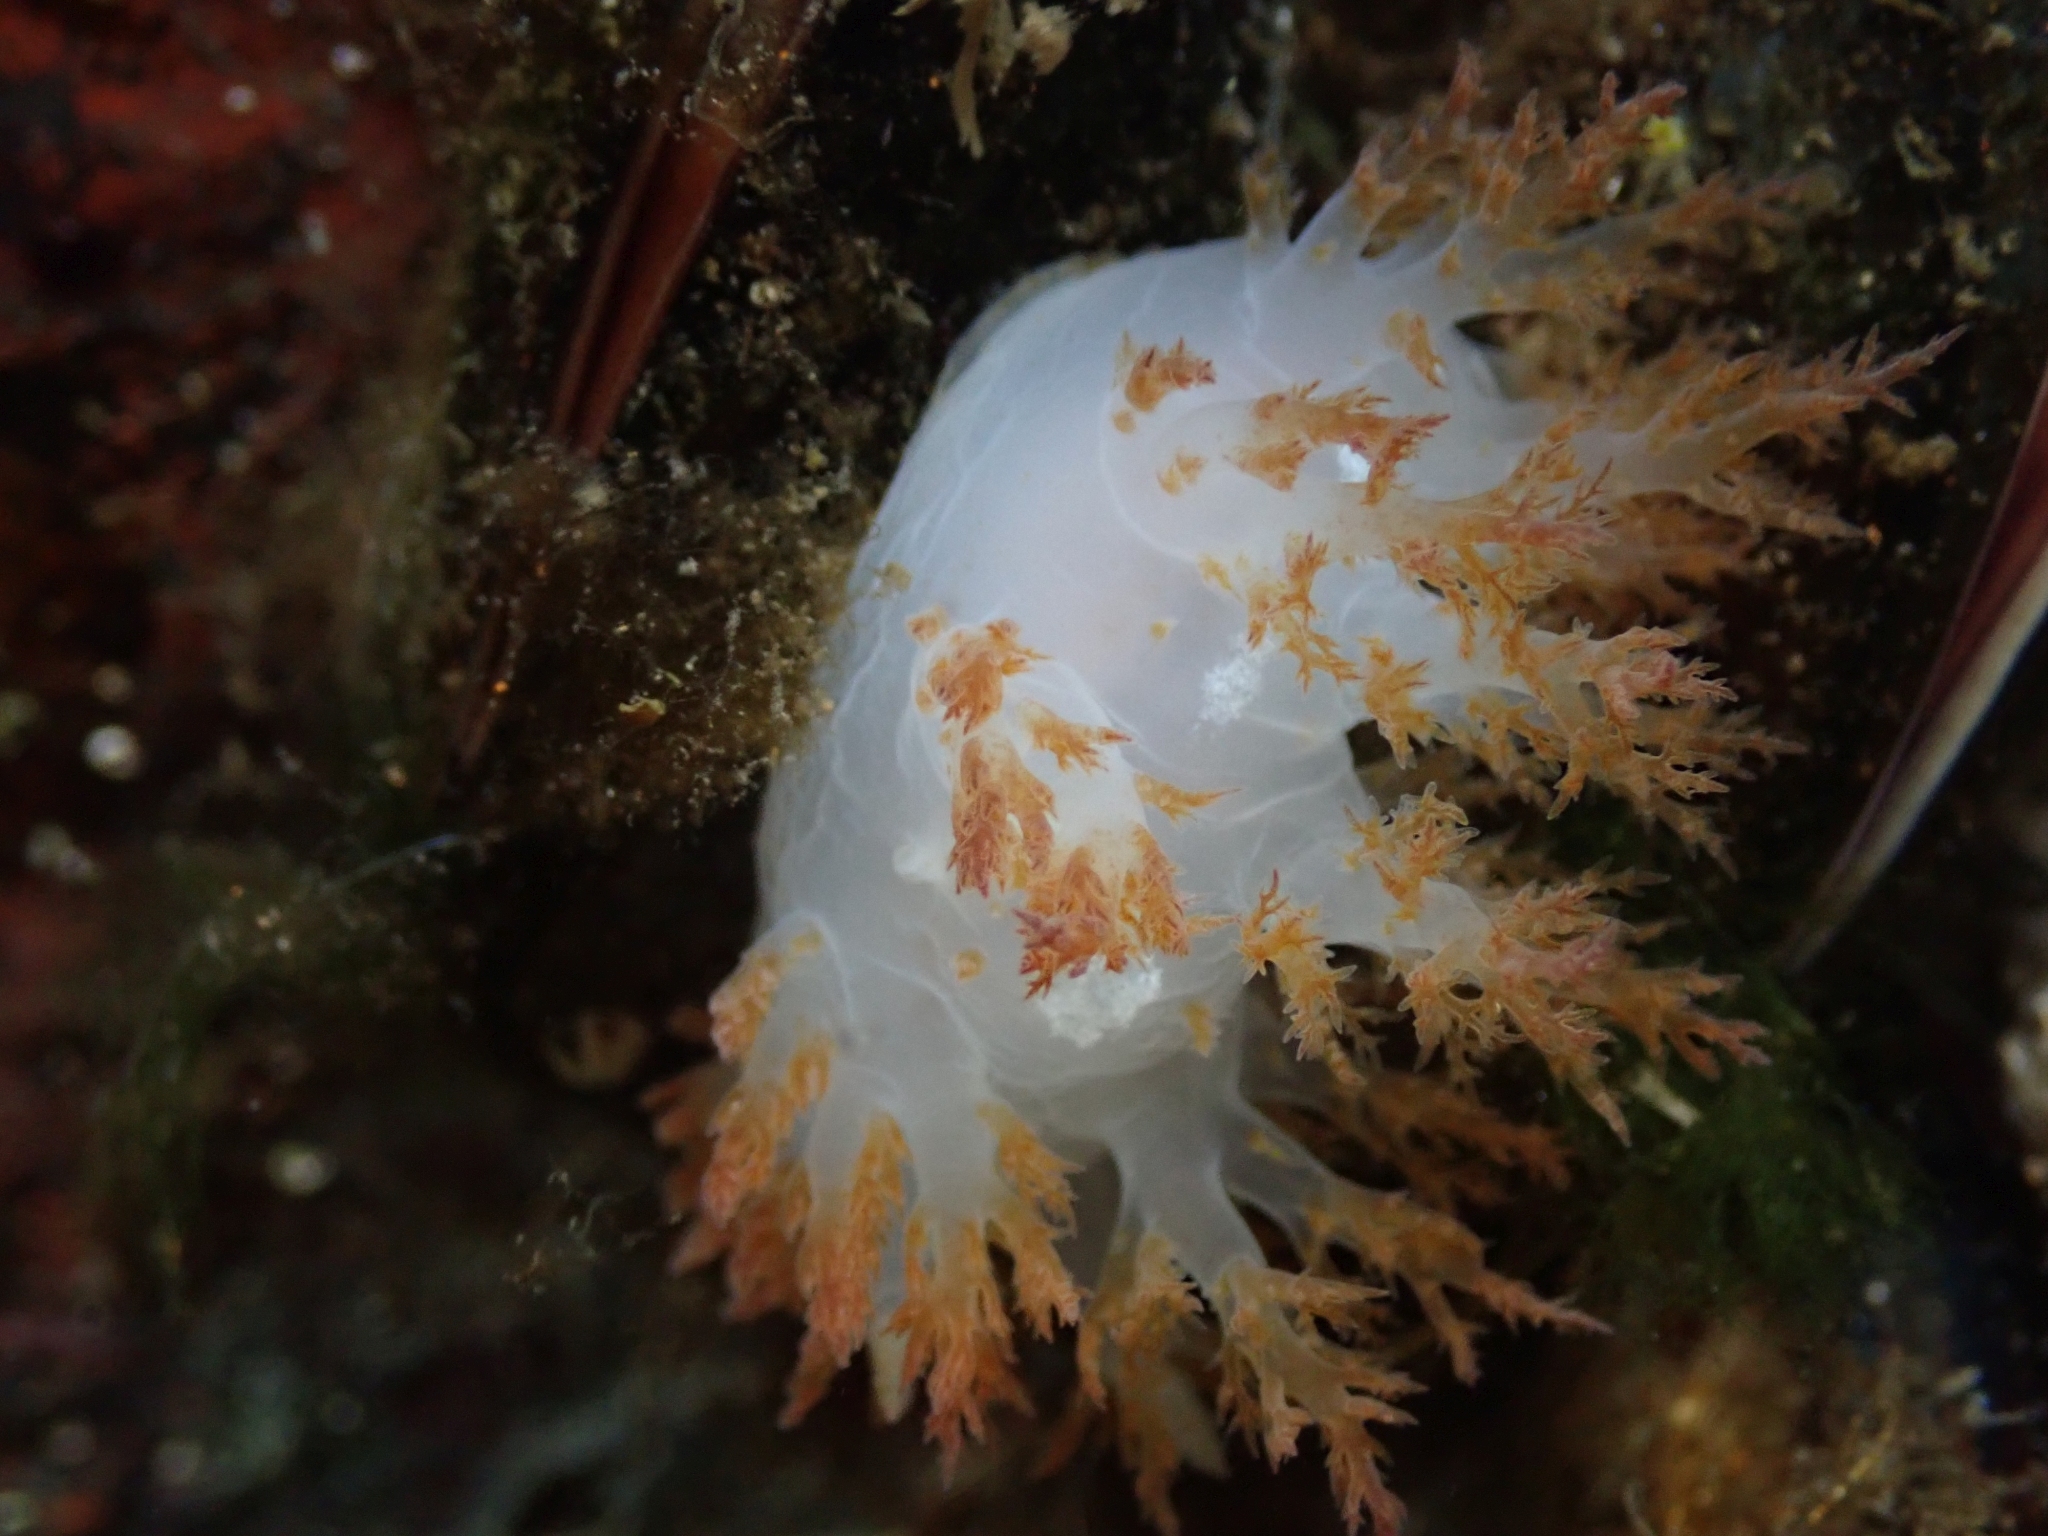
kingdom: Animalia
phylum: Mollusca
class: Gastropoda
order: Nudibranchia
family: Dendronotidae
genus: Dendronotus
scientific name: Dendronotus rufus
